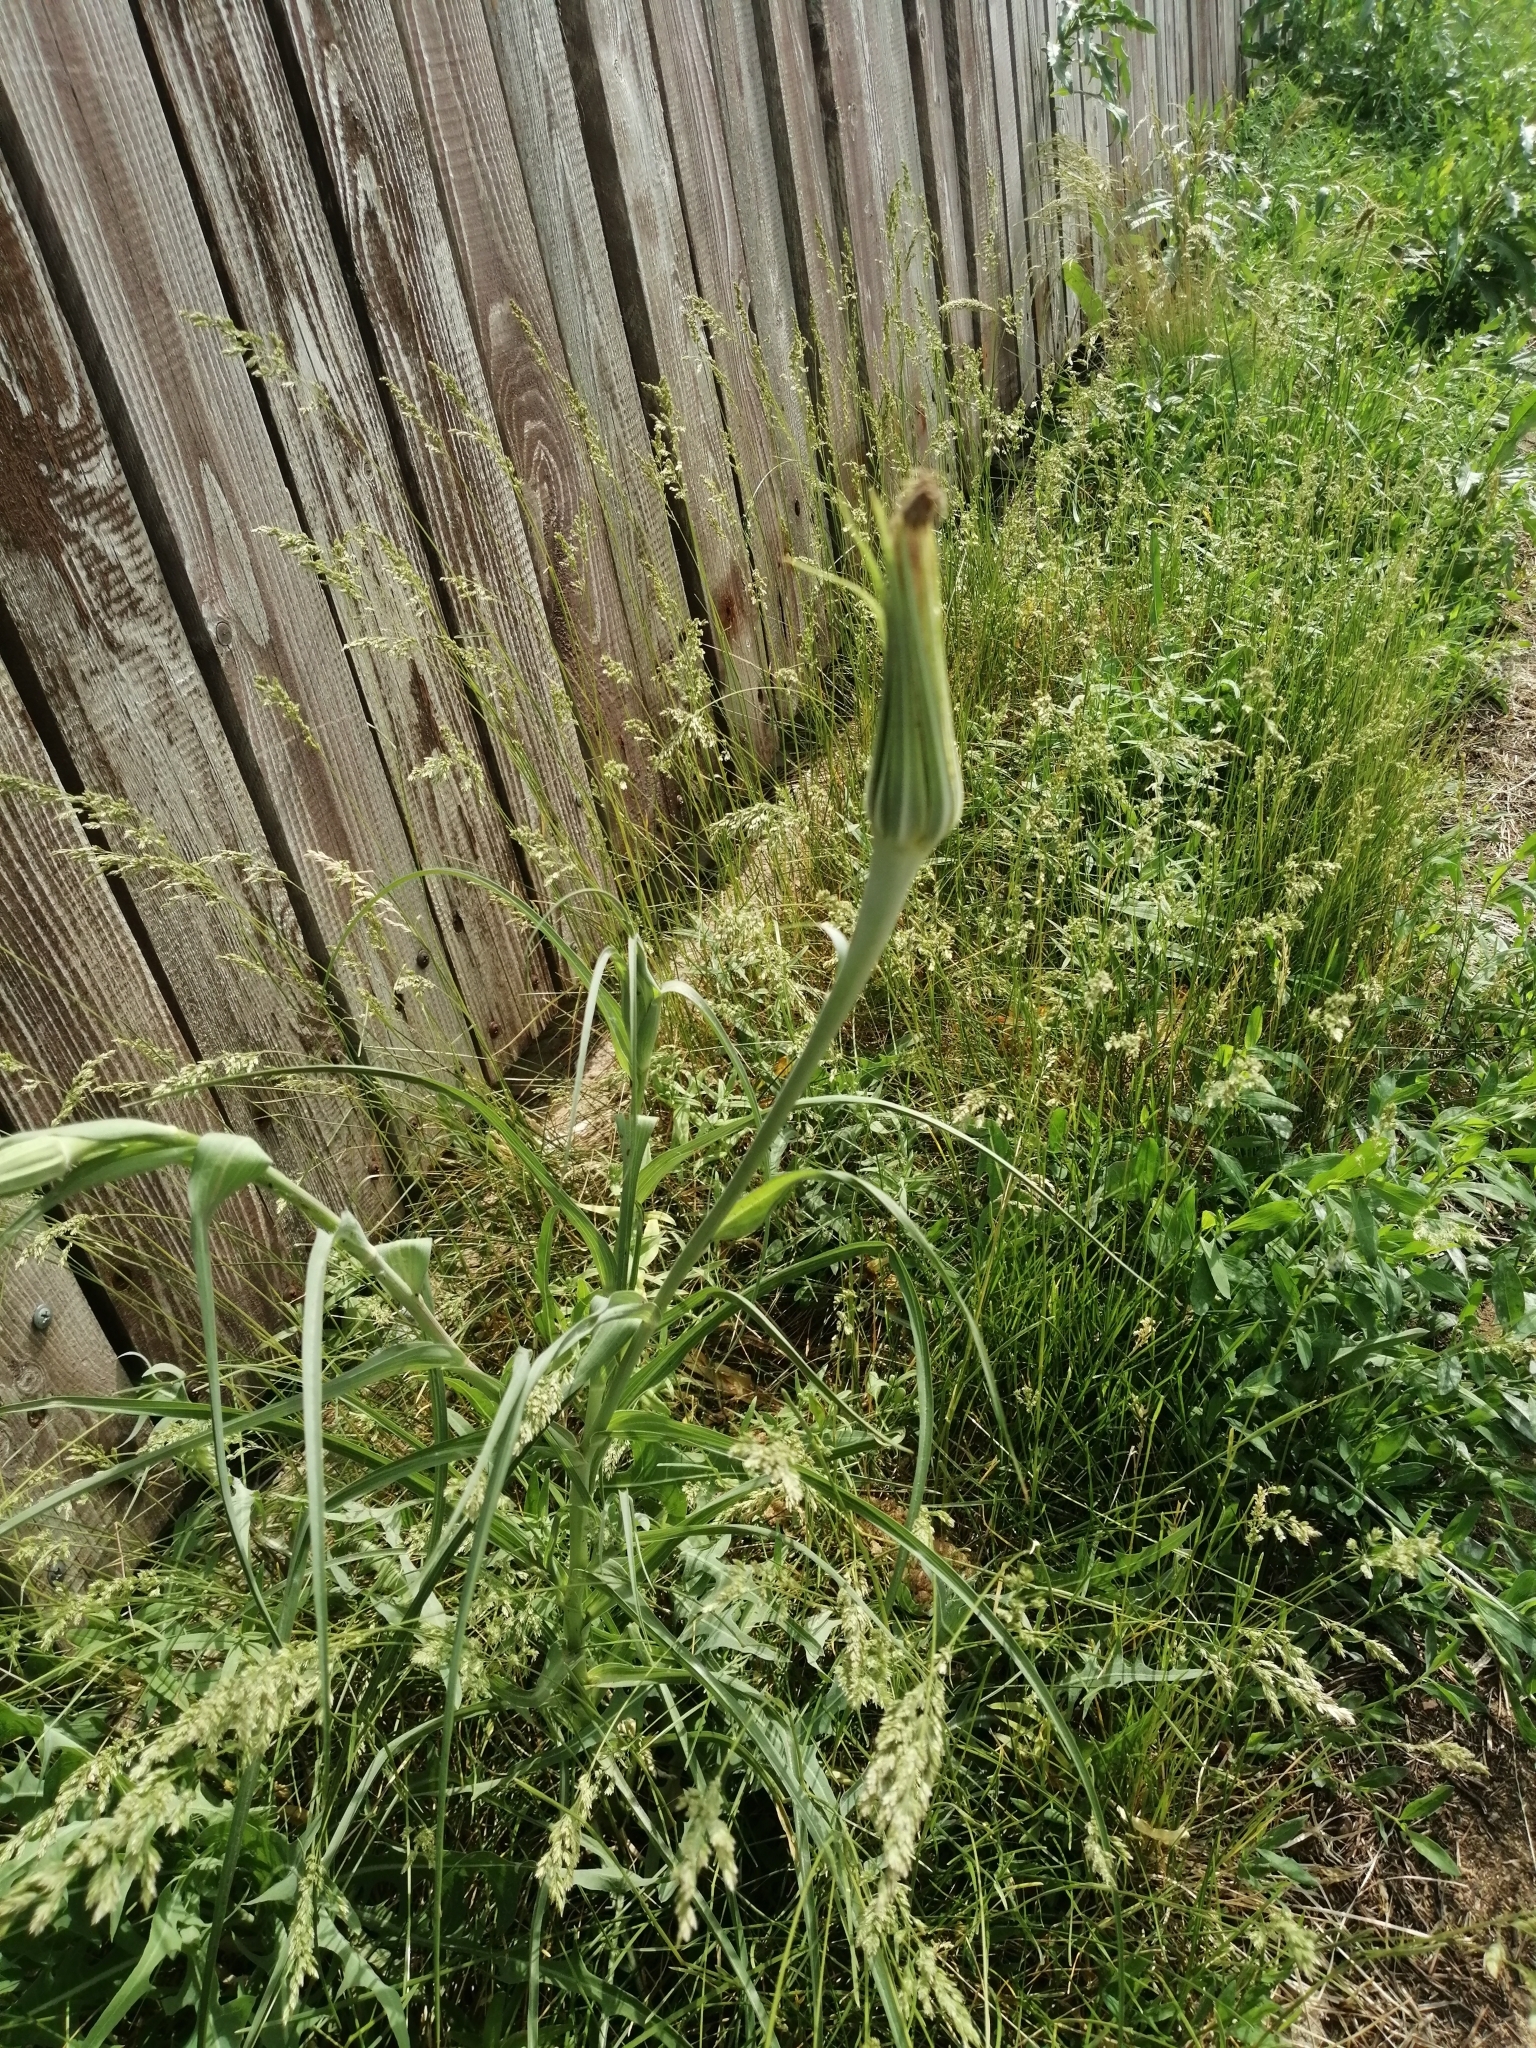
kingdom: Plantae
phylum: Tracheophyta
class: Magnoliopsida
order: Asterales
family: Asteraceae
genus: Tragopogon
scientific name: Tragopogon dubius
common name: Yellow salsify
